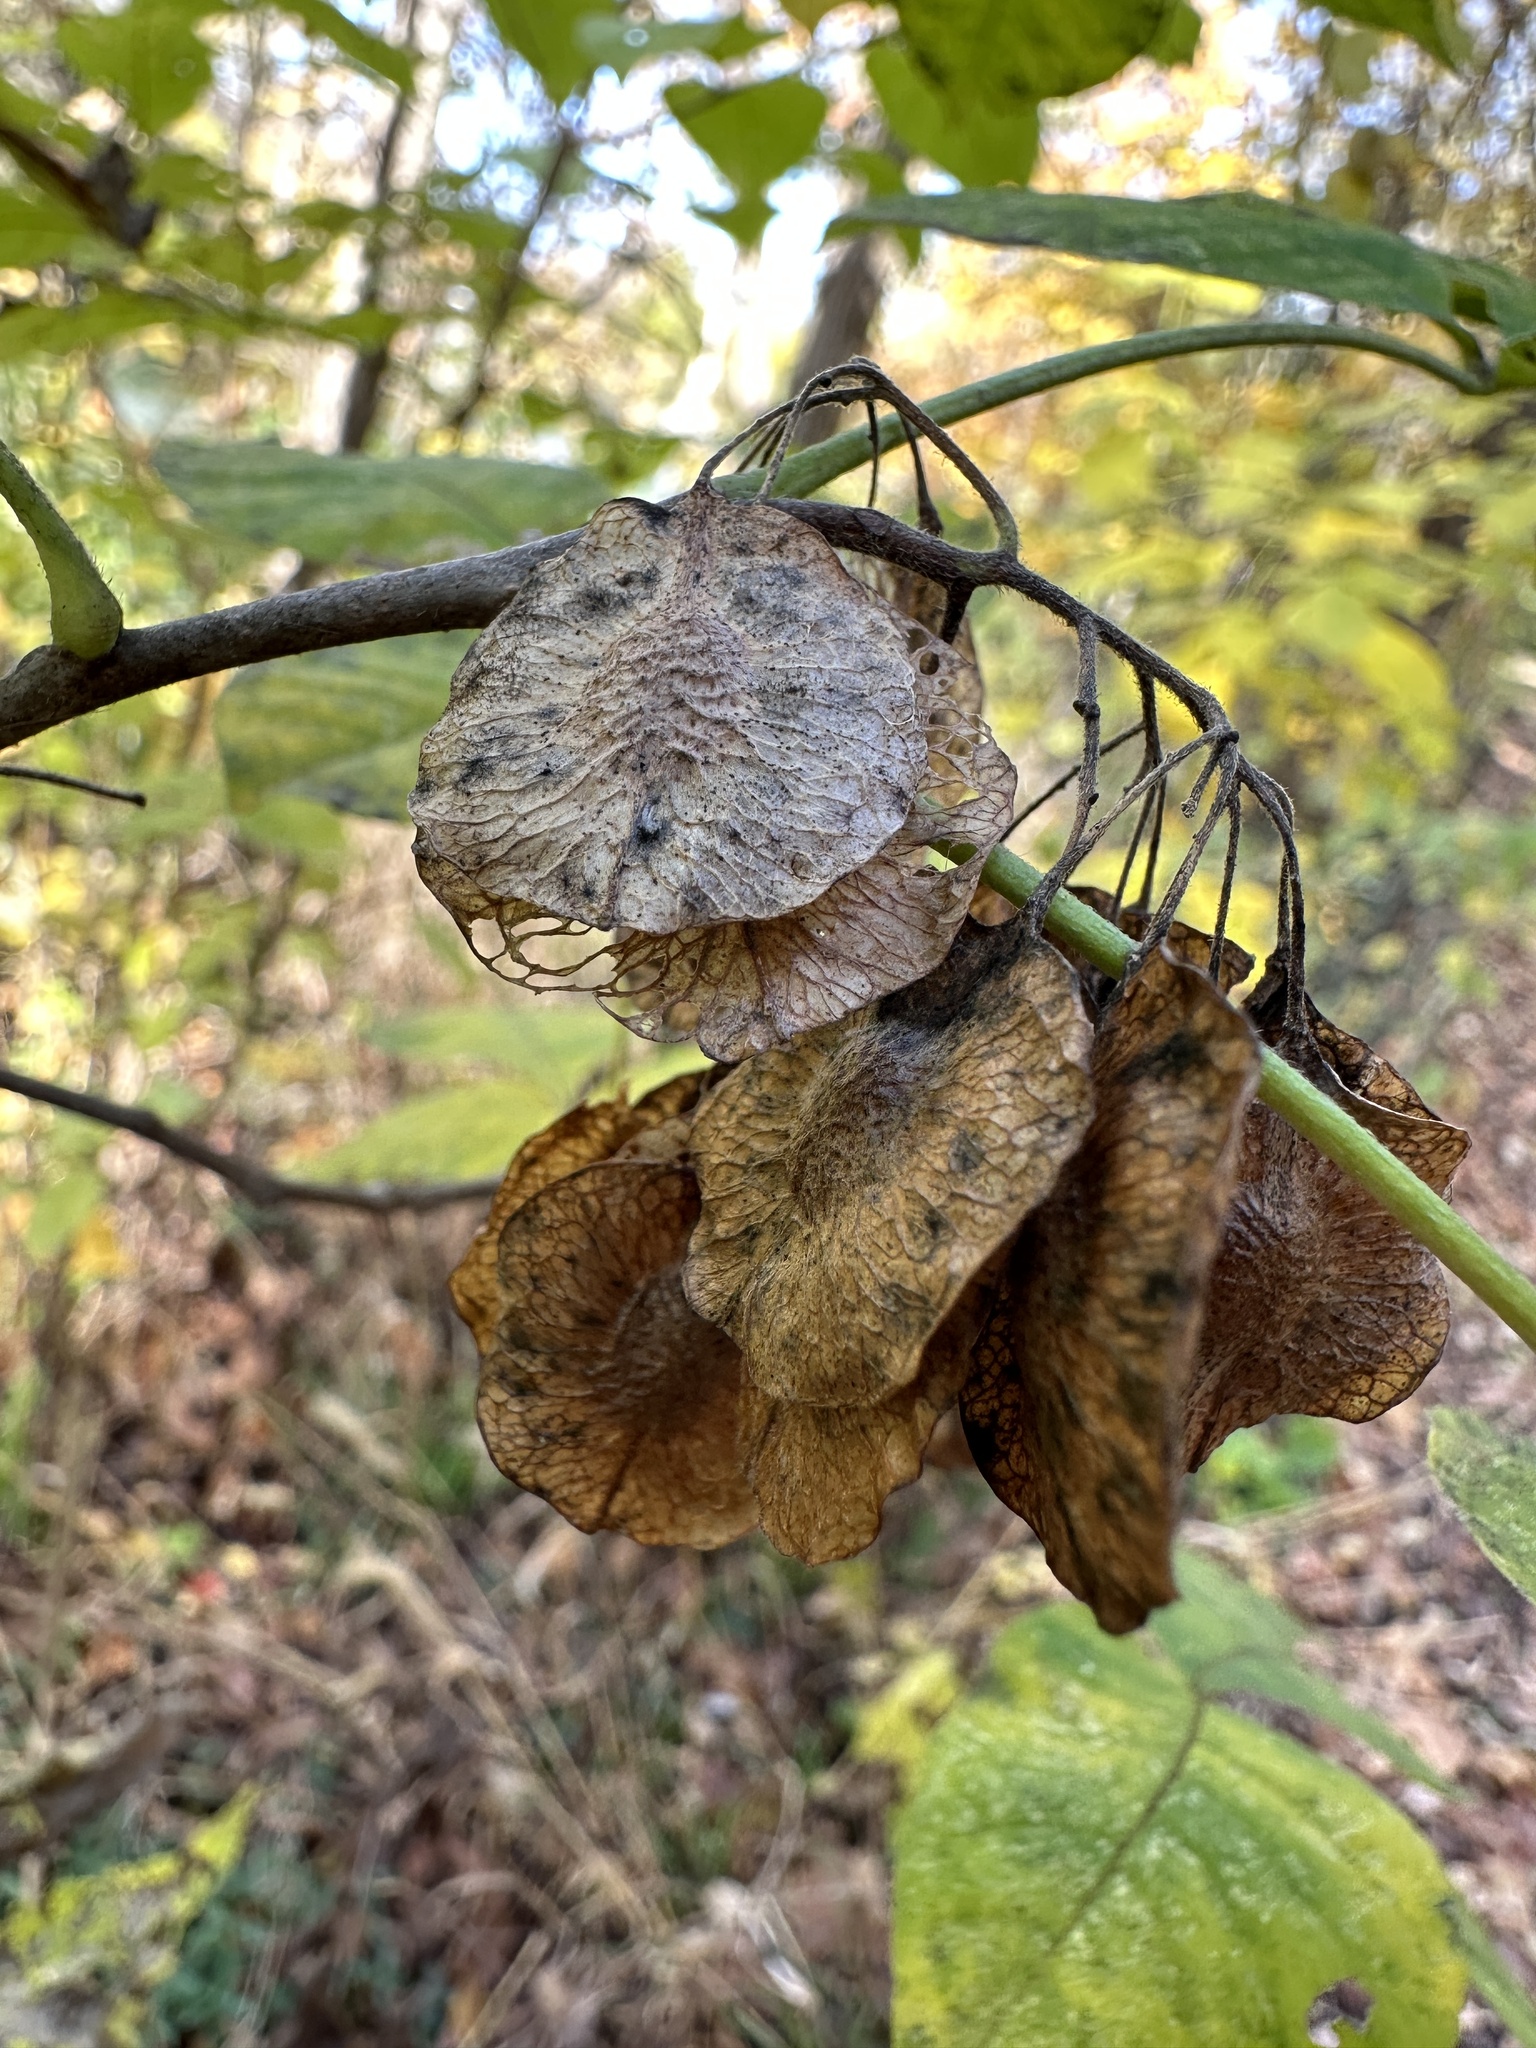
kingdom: Plantae
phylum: Tracheophyta
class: Magnoliopsida
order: Sapindales
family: Rutaceae
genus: Ptelea
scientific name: Ptelea trifoliata
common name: Common hop-tree
